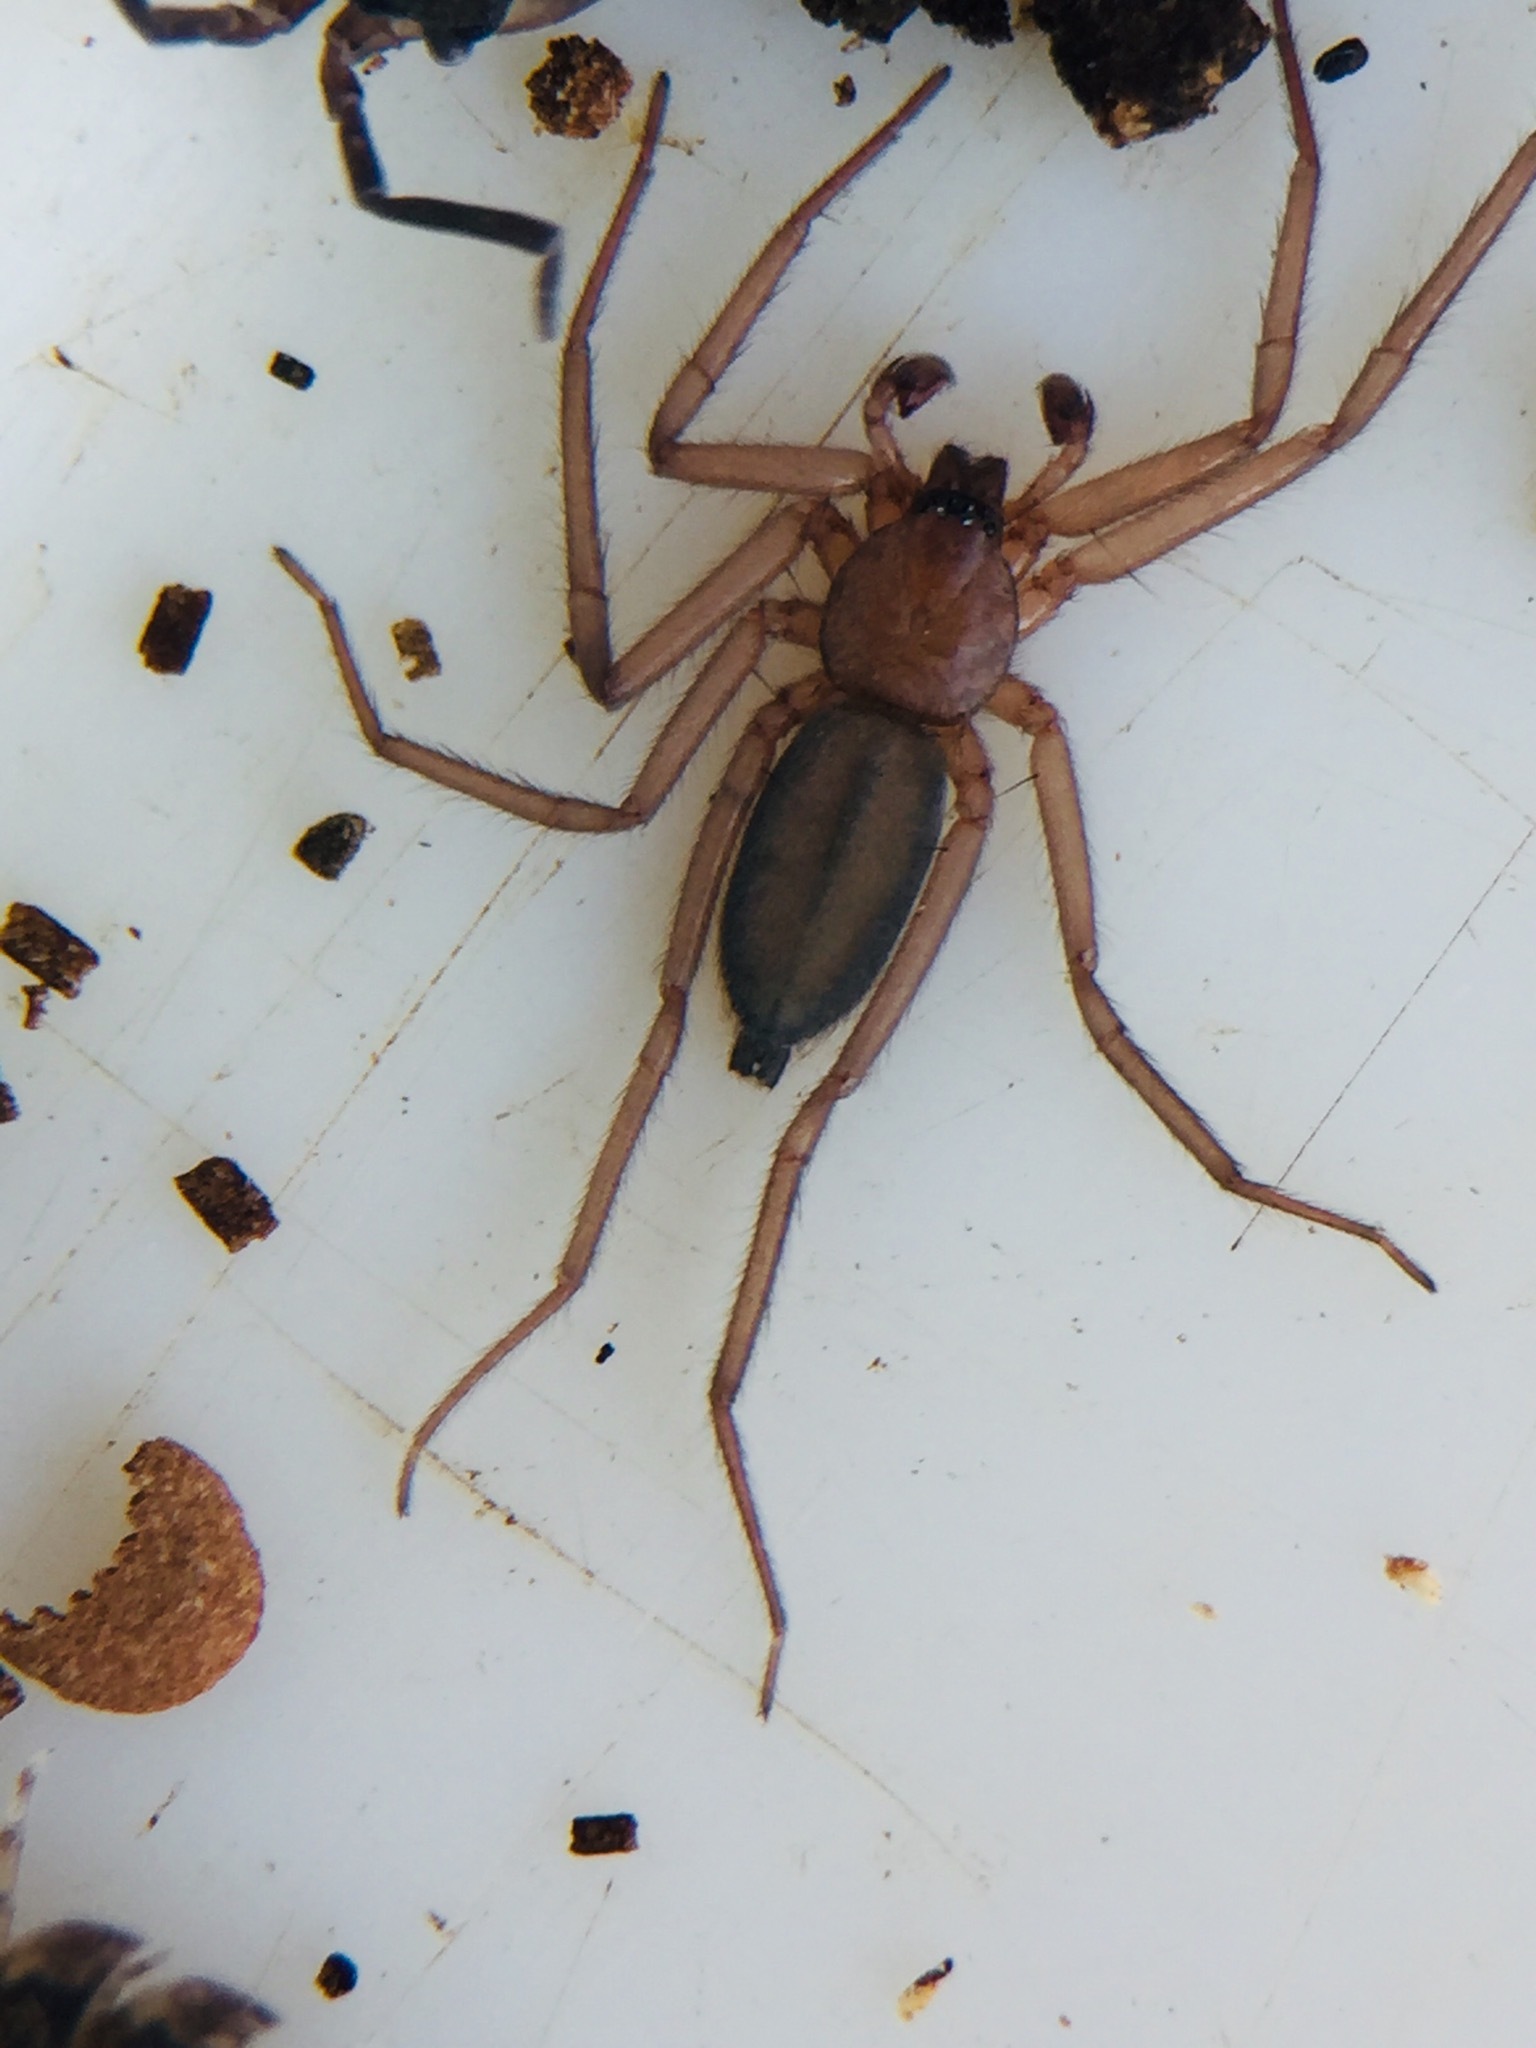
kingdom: Animalia
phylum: Arthropoda
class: Arachnida
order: Araneae
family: Trochanteriidae
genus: Hemicloea
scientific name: Hemicloea rogenhoferi
